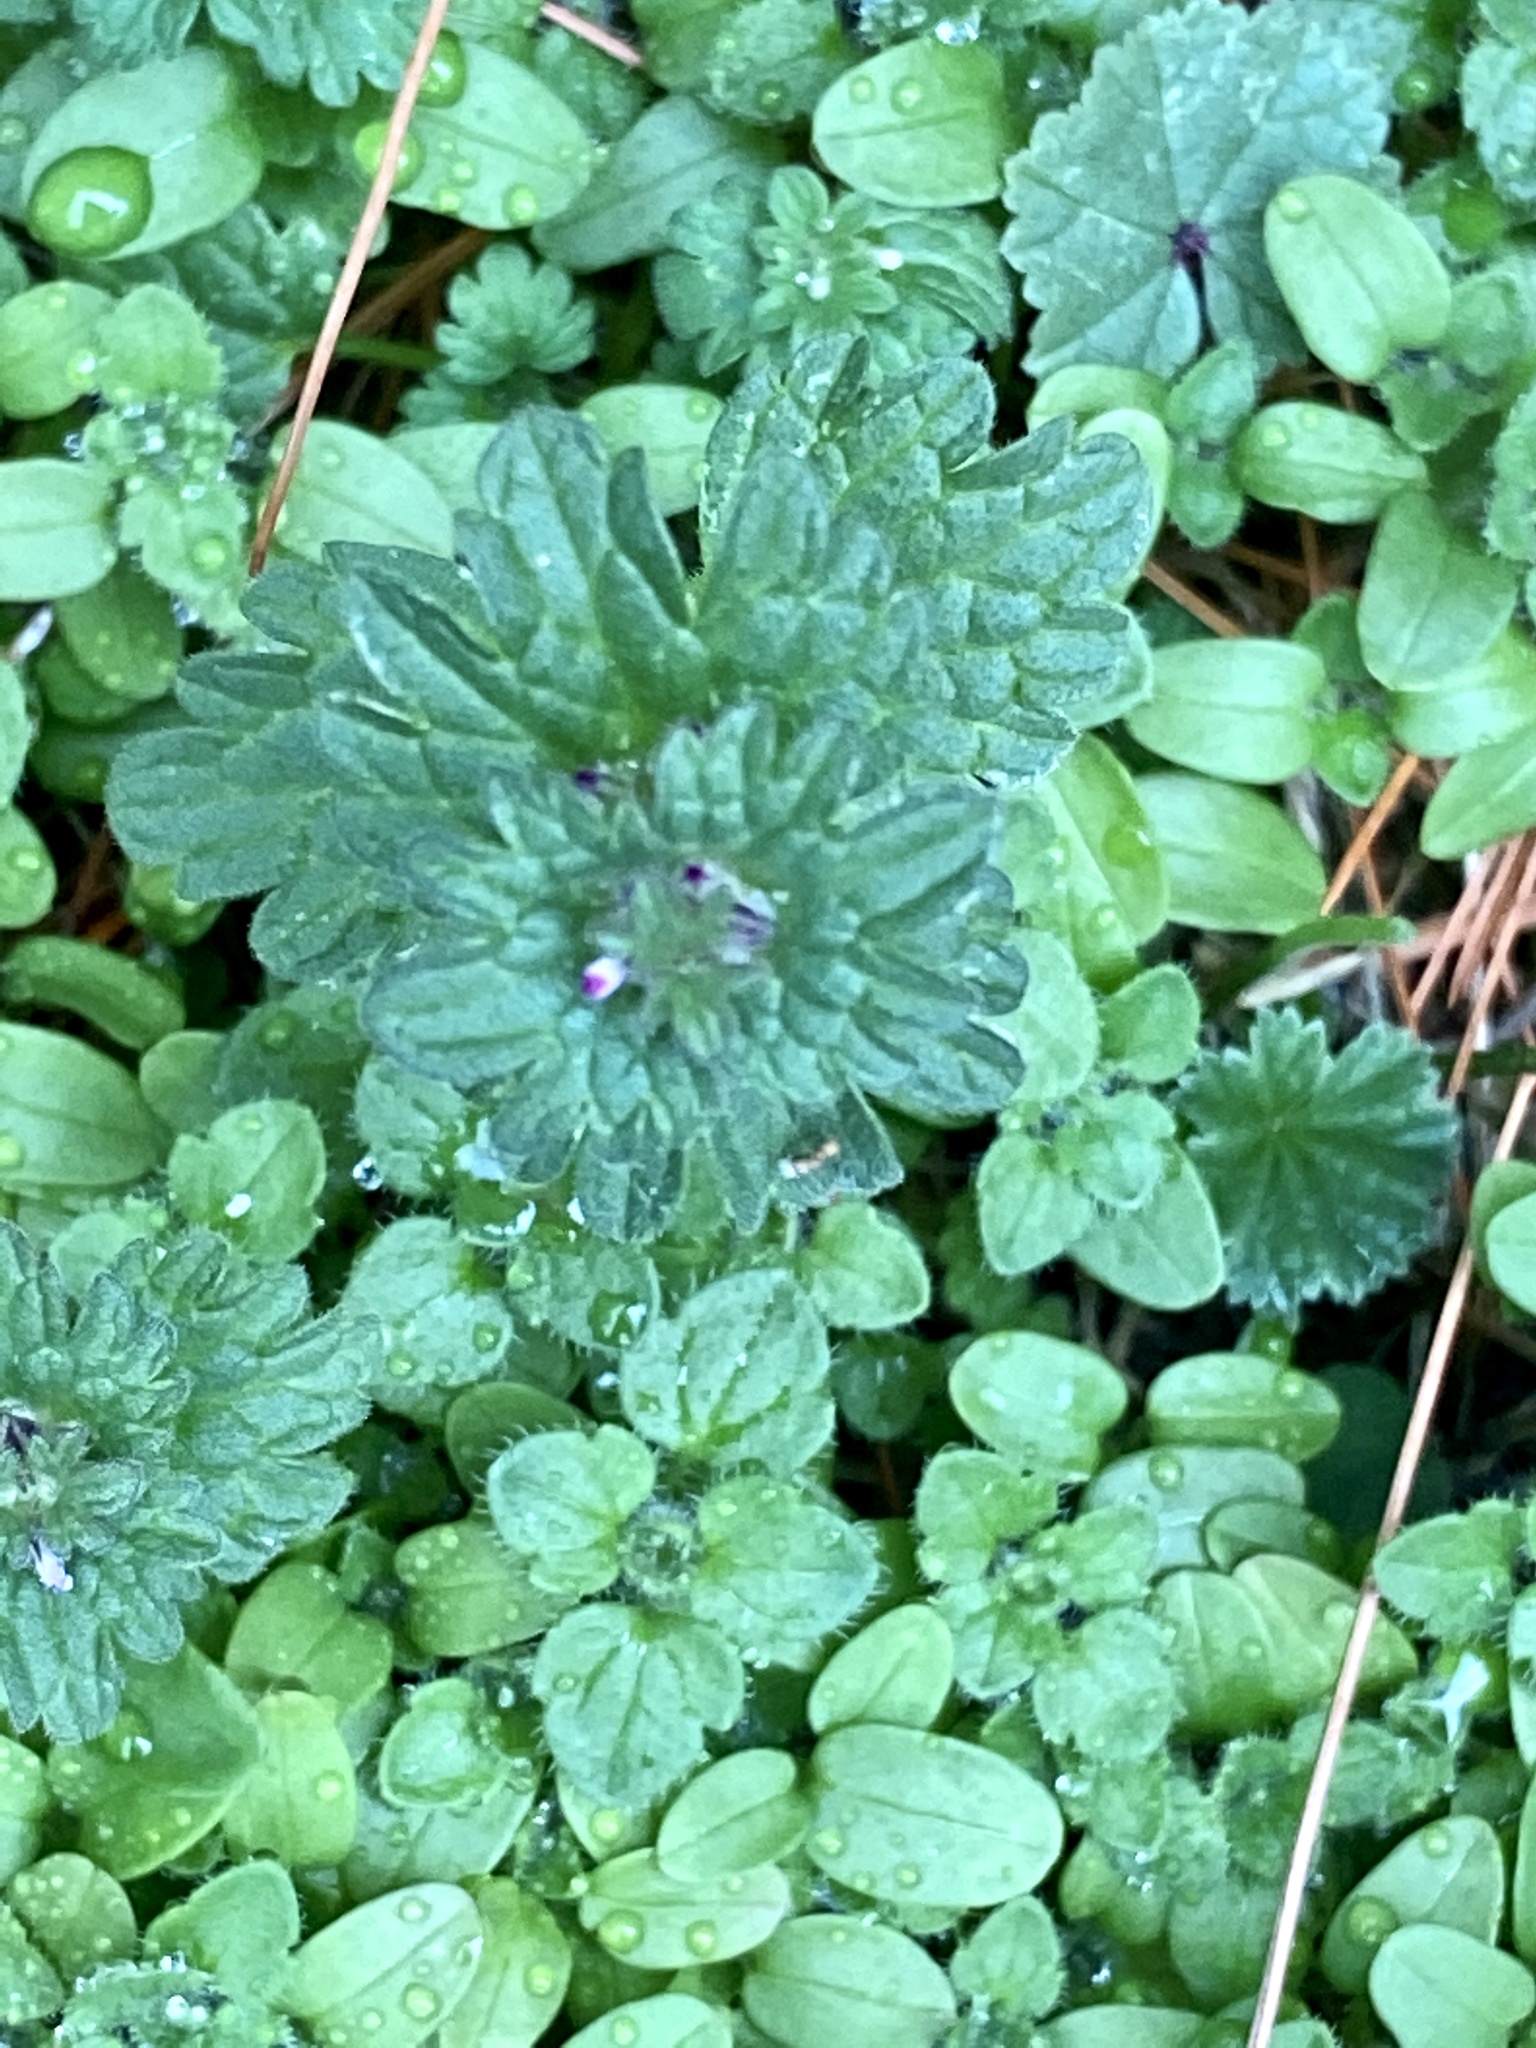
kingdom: Plantae
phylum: Tracheophyta
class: Magnoliopsida
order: Lamiales
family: Lamiaceae
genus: Lamium
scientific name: Lamium amplexicaule
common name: Henbit dead-nettle
